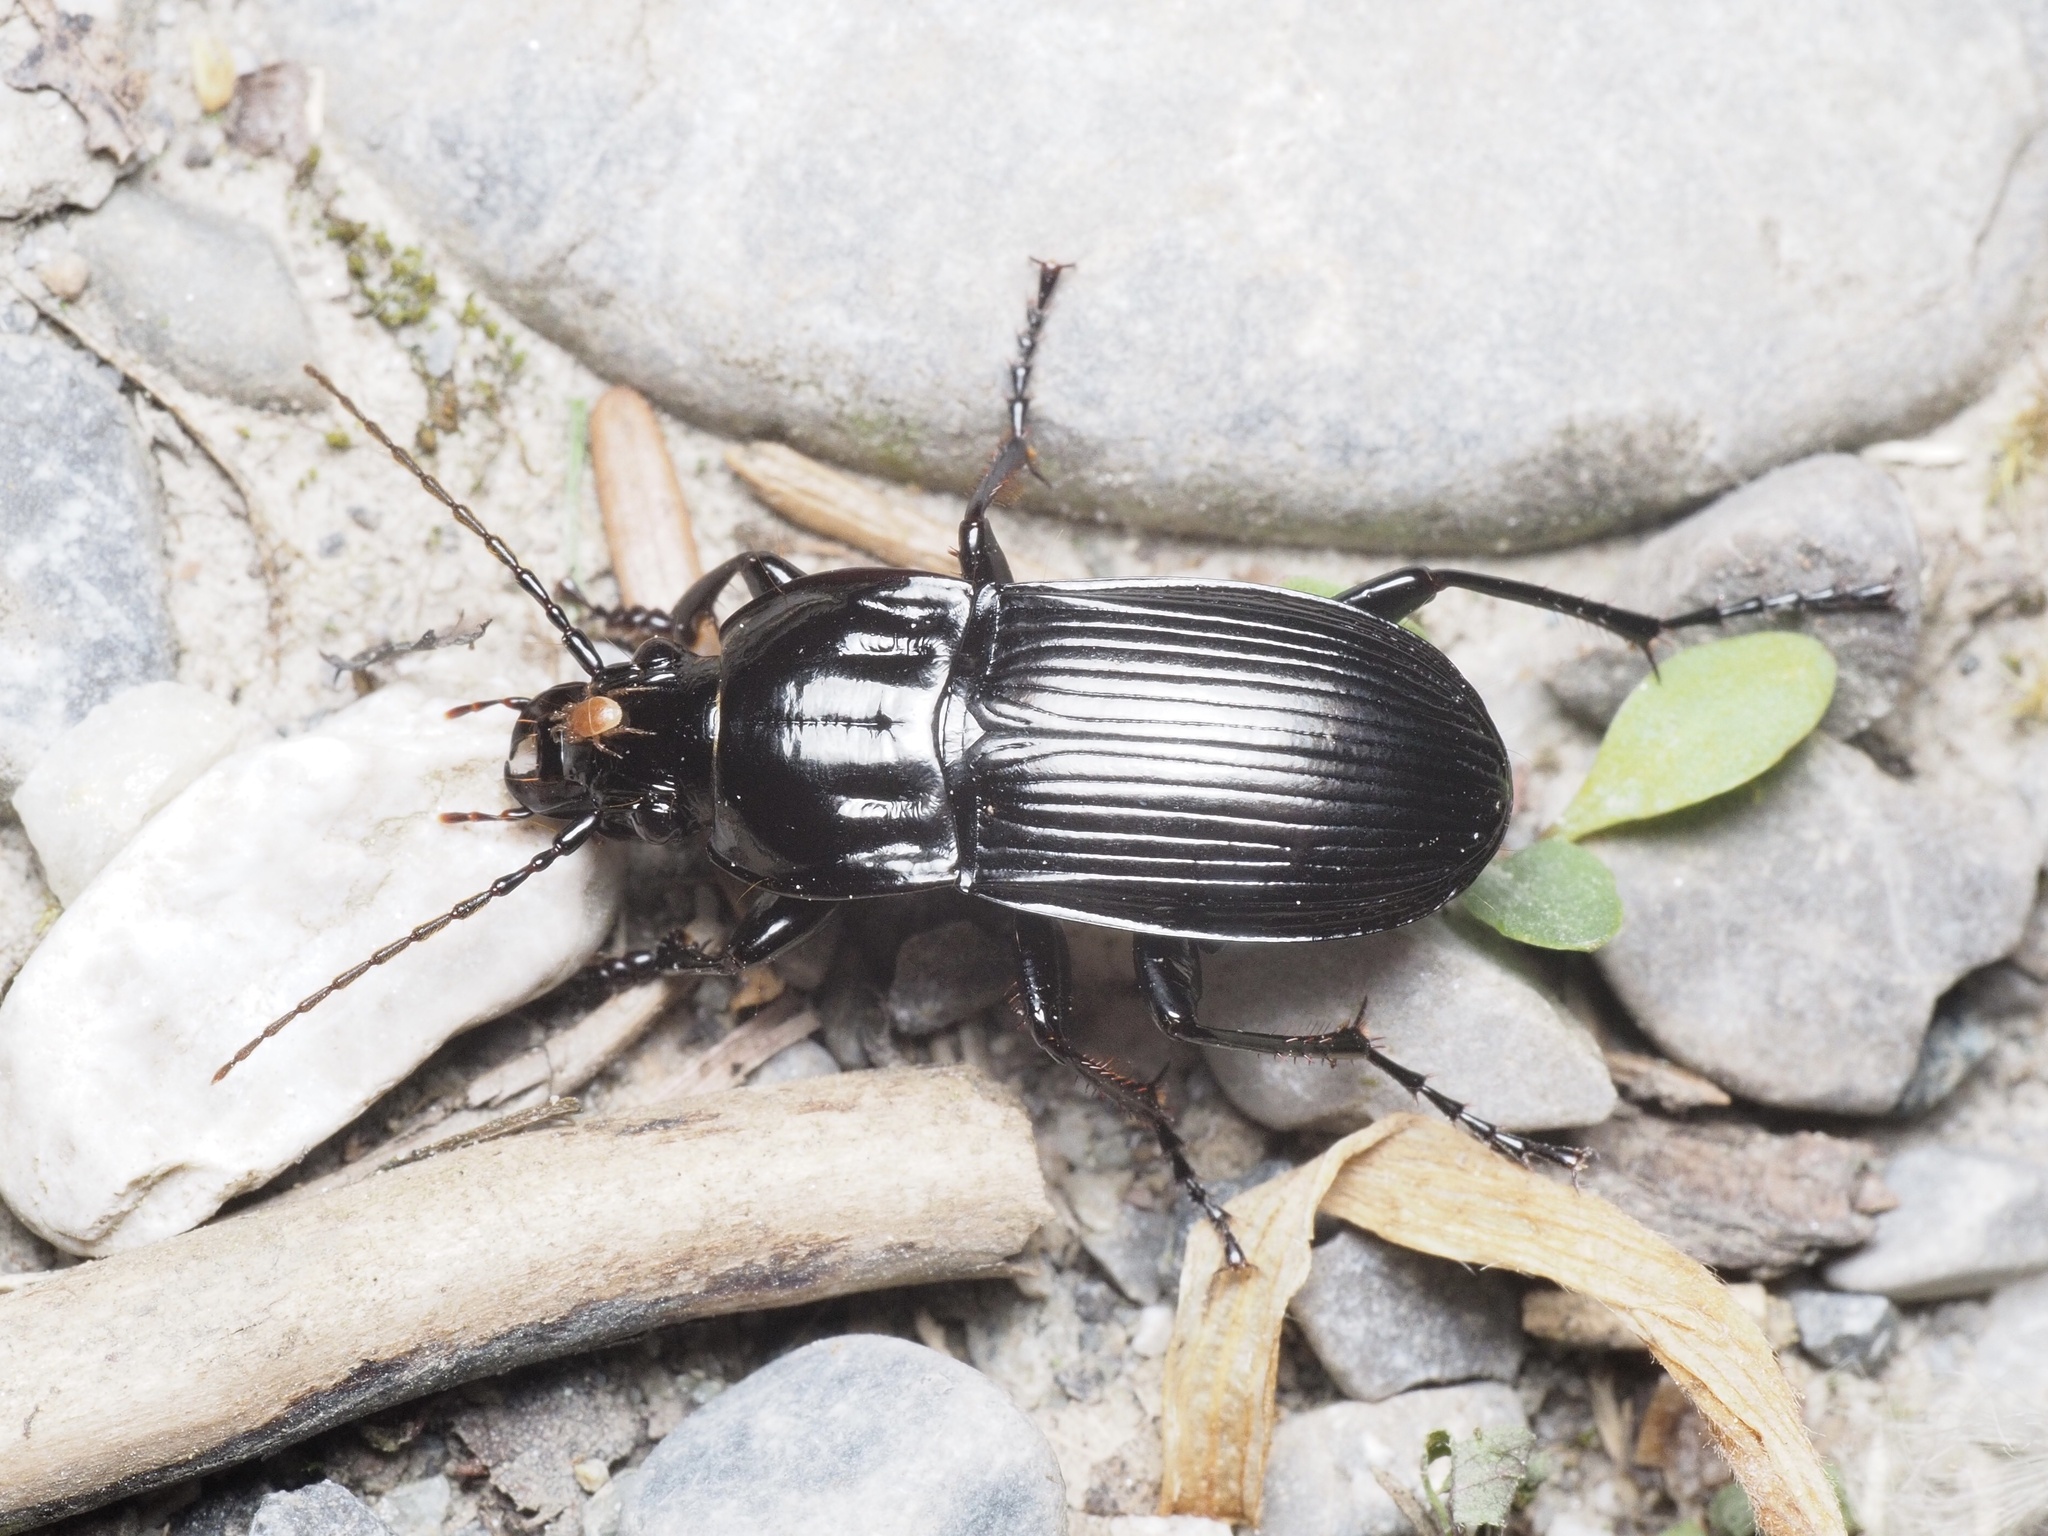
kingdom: Animalia
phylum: Arthropoda
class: Insecta
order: Coleoptera
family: Carabidae
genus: Abax
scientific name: Abax parallelepipedus
